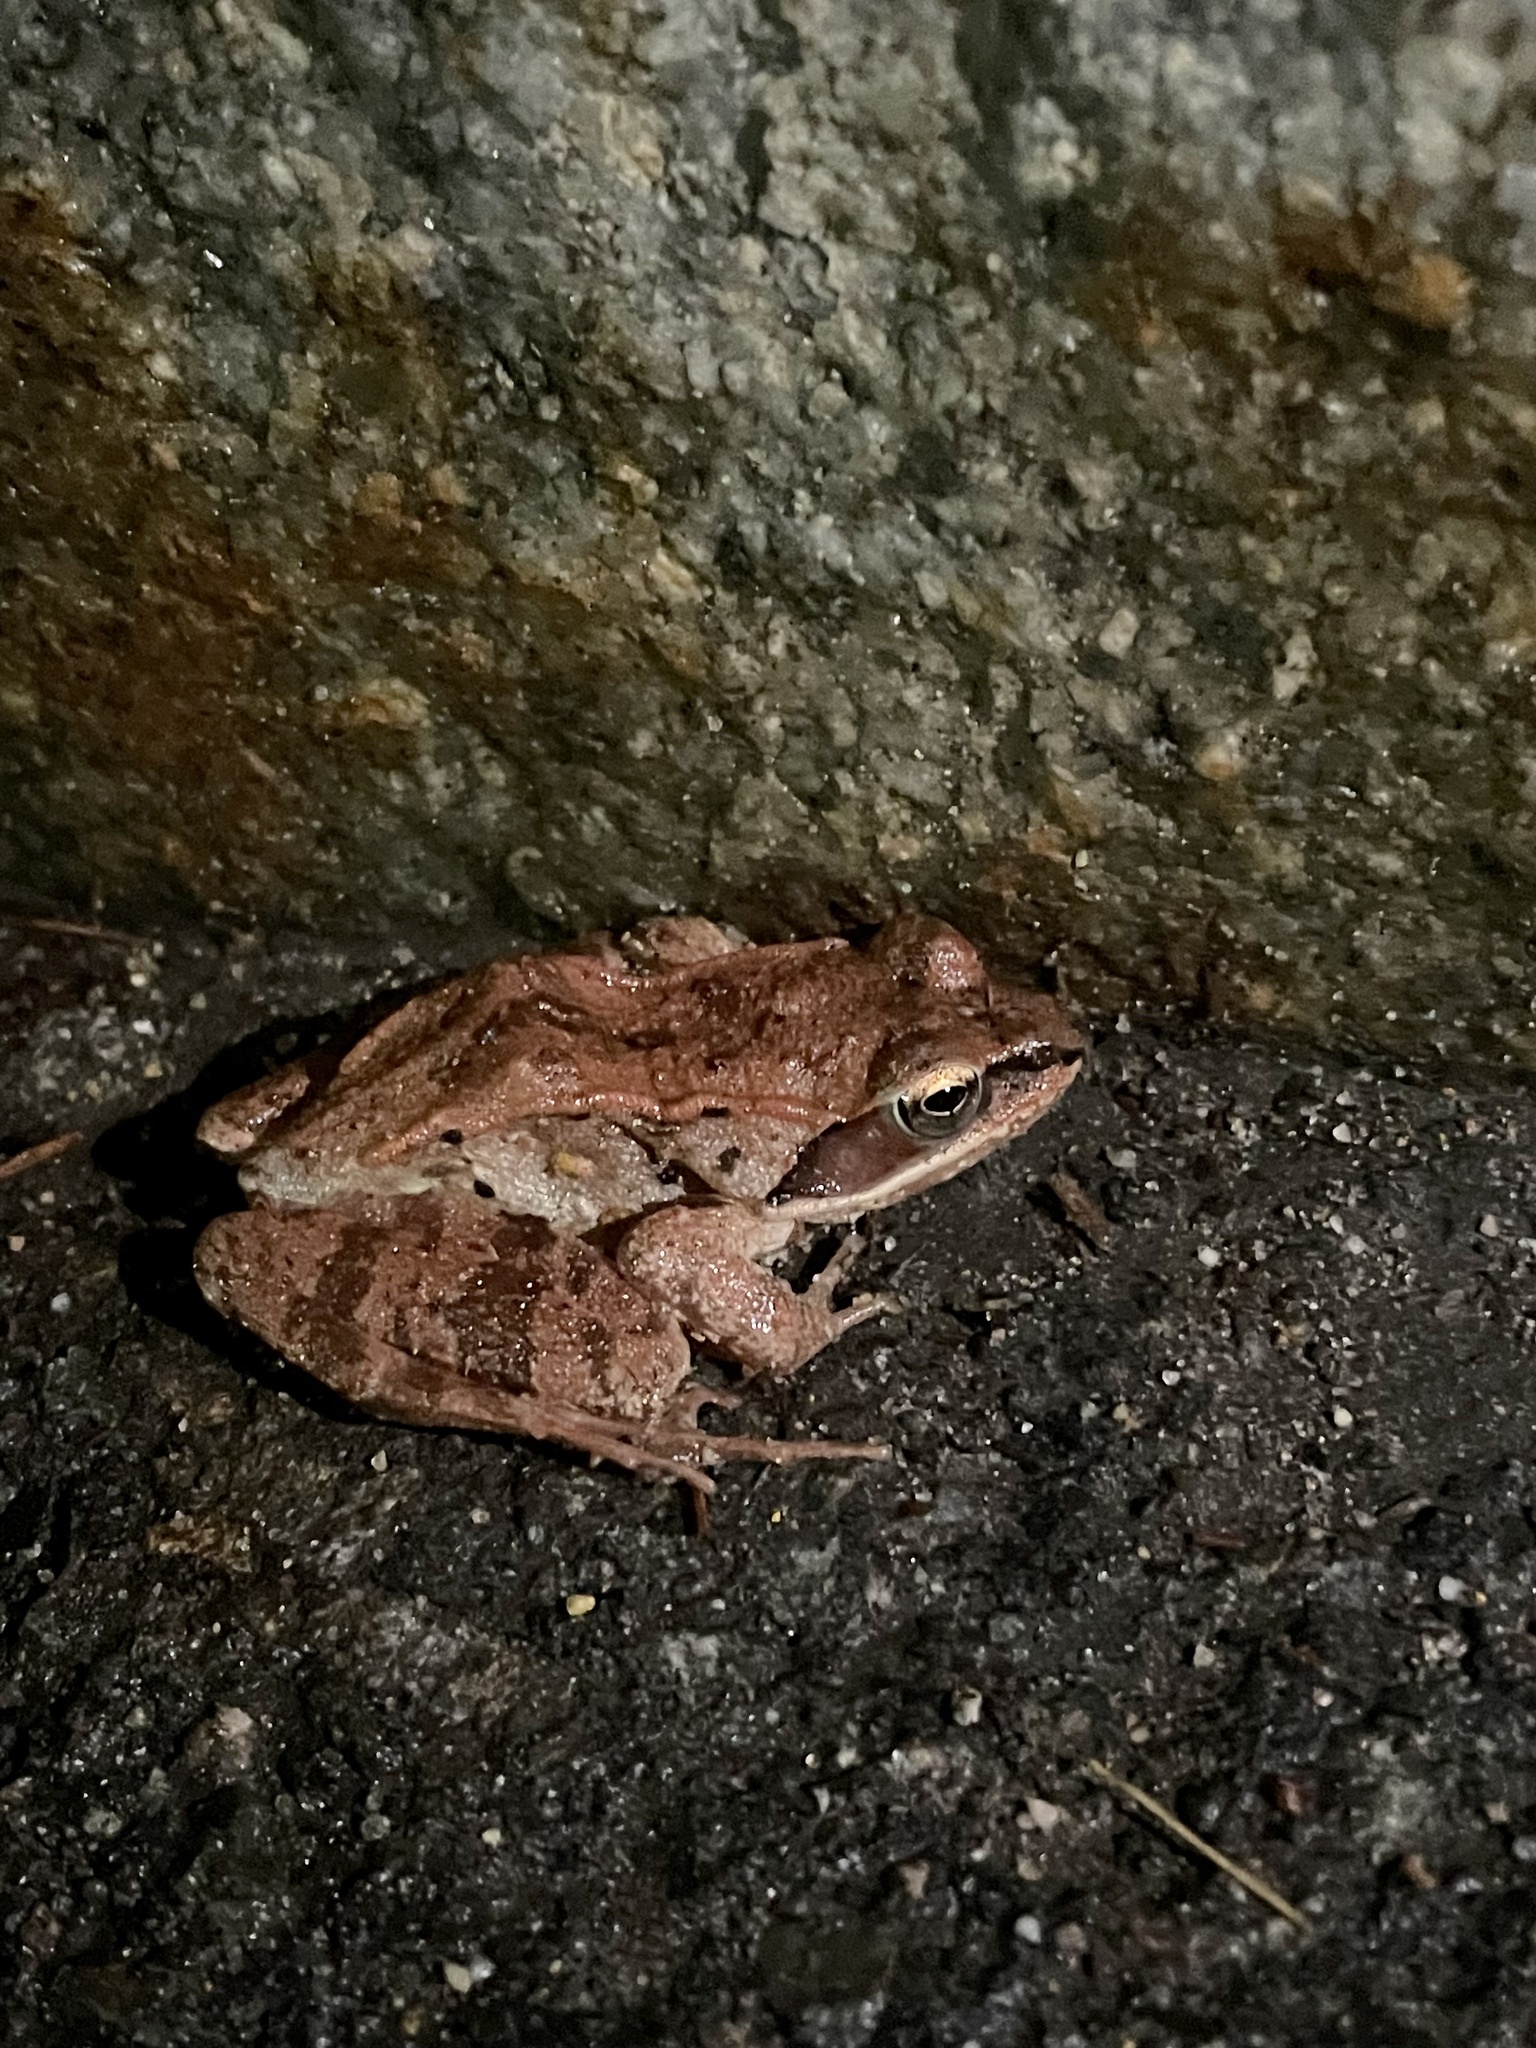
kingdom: Animalia
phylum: Chordata
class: Amphibia
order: Anura
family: Ranidae
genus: Lithobates
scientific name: Lithobates sylvaticus
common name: Wood frog
